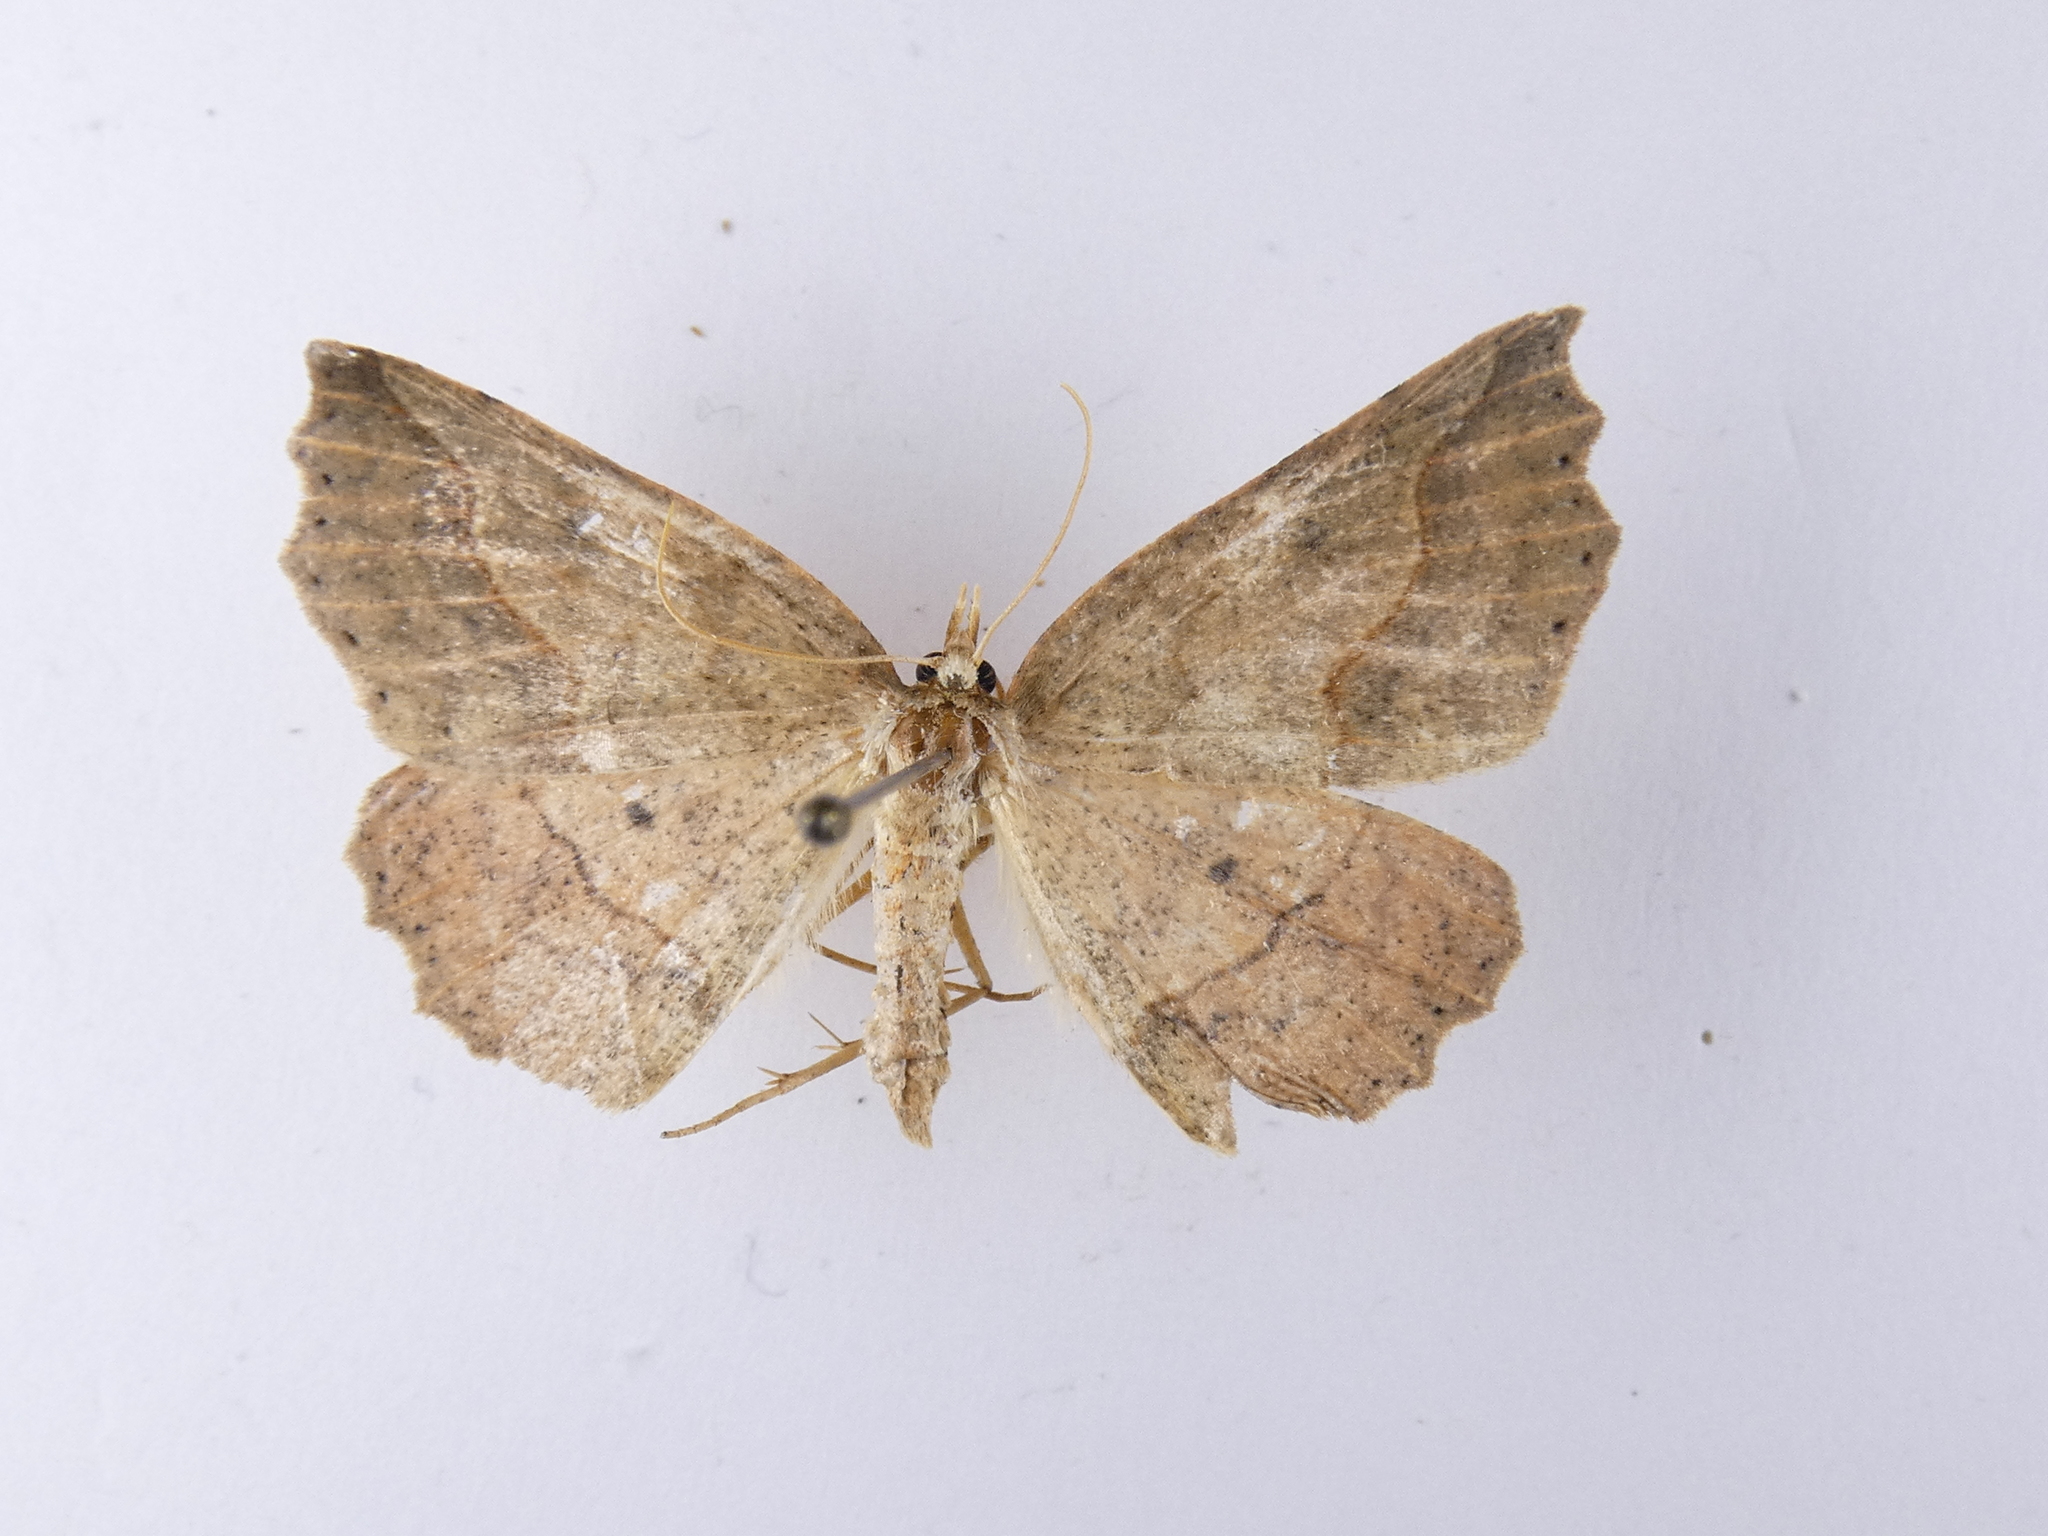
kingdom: Animalia
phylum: Arthropoda
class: Insecta
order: Lepidoptera
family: Geometridae
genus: Ischalis
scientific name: Ischalis variabilis
